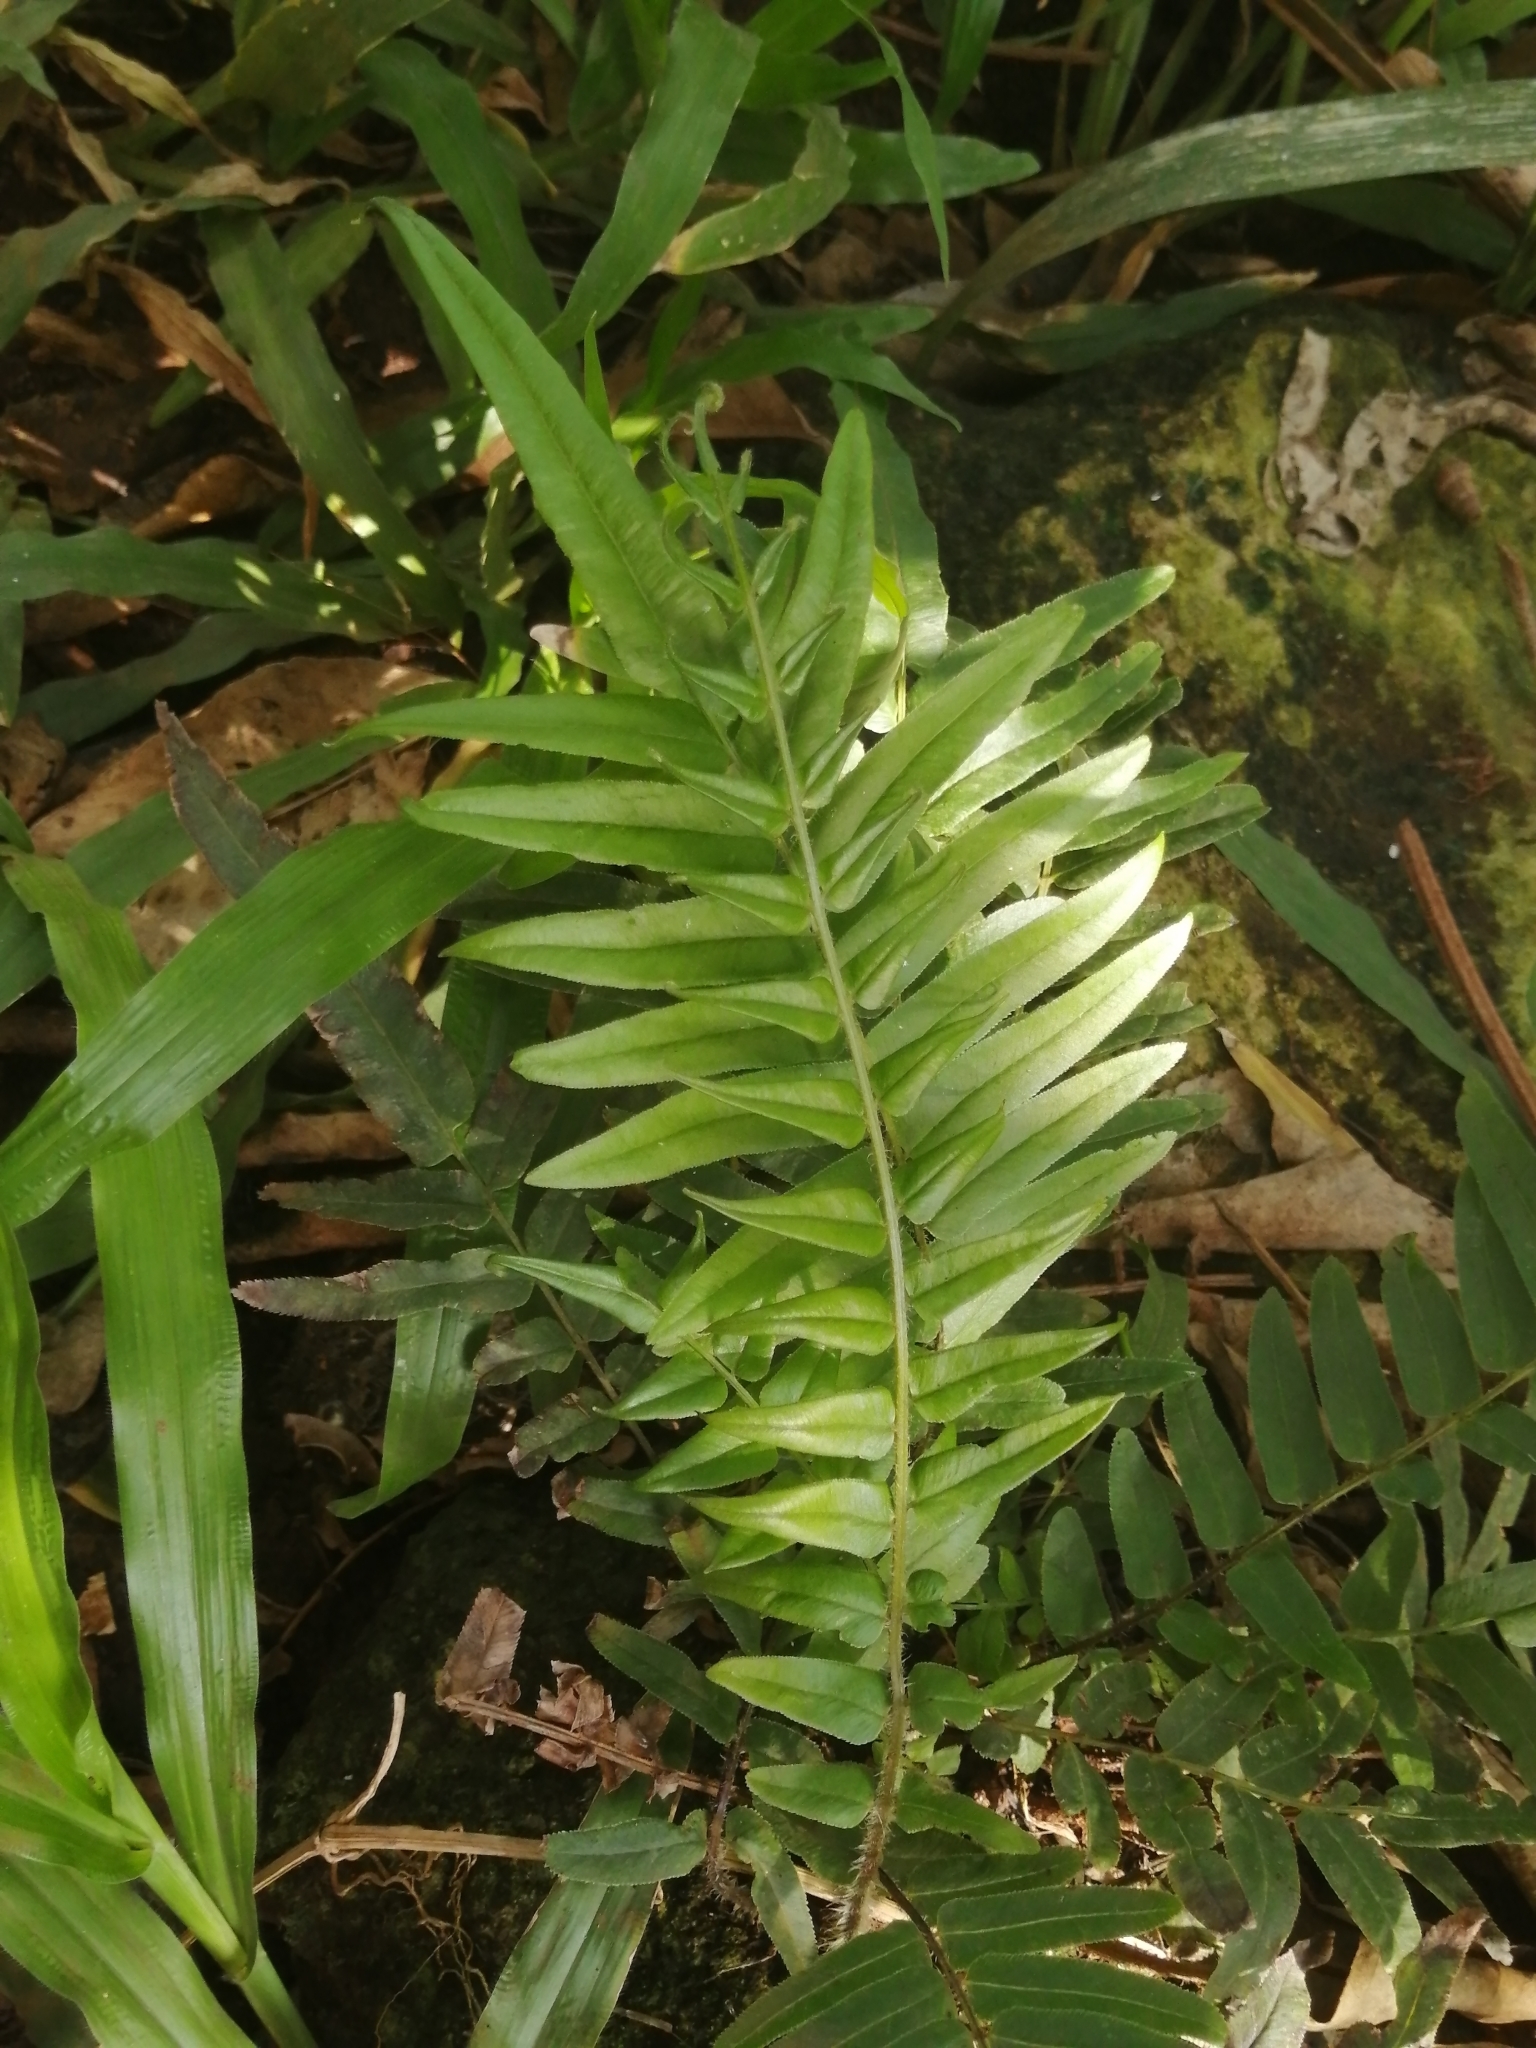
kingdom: Plantae
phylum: Tracheophyta
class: Polypodiopsida
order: Polypodiales
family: Pteridaceae
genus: Pteris
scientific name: Pteris vittata
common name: Ladder brake
